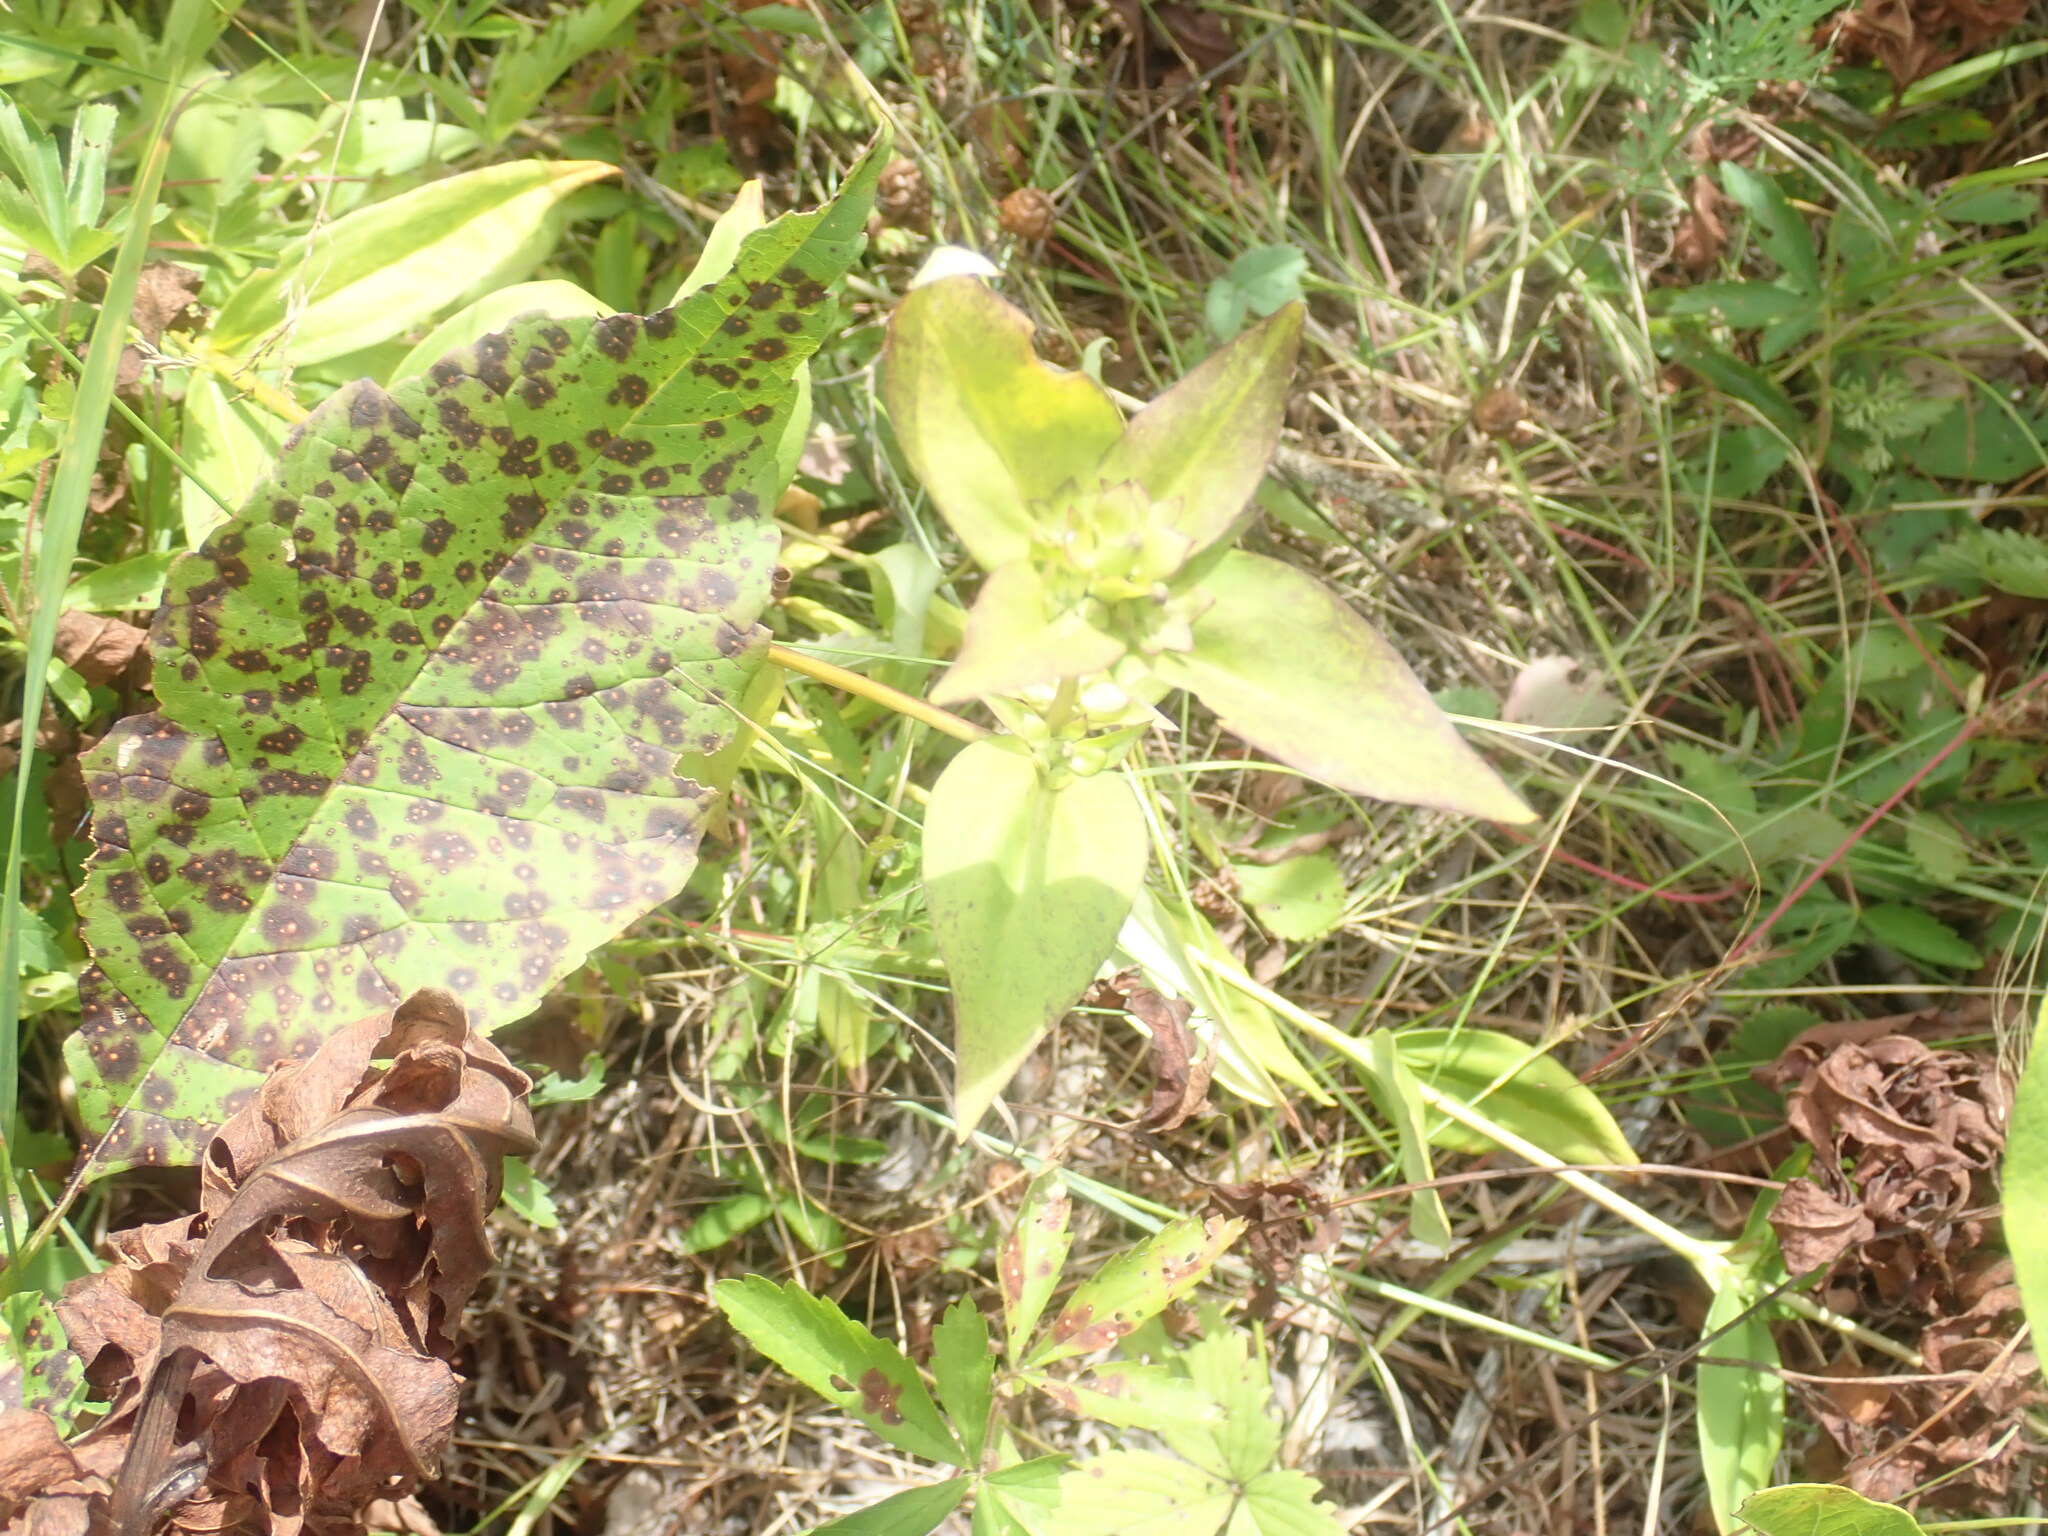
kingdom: Plantae
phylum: Tracheophyta
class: Magnoliopsida
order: Gentianales
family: Gentianaceae
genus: Gentiana
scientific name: Gentiana clausa
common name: Blind gentian
